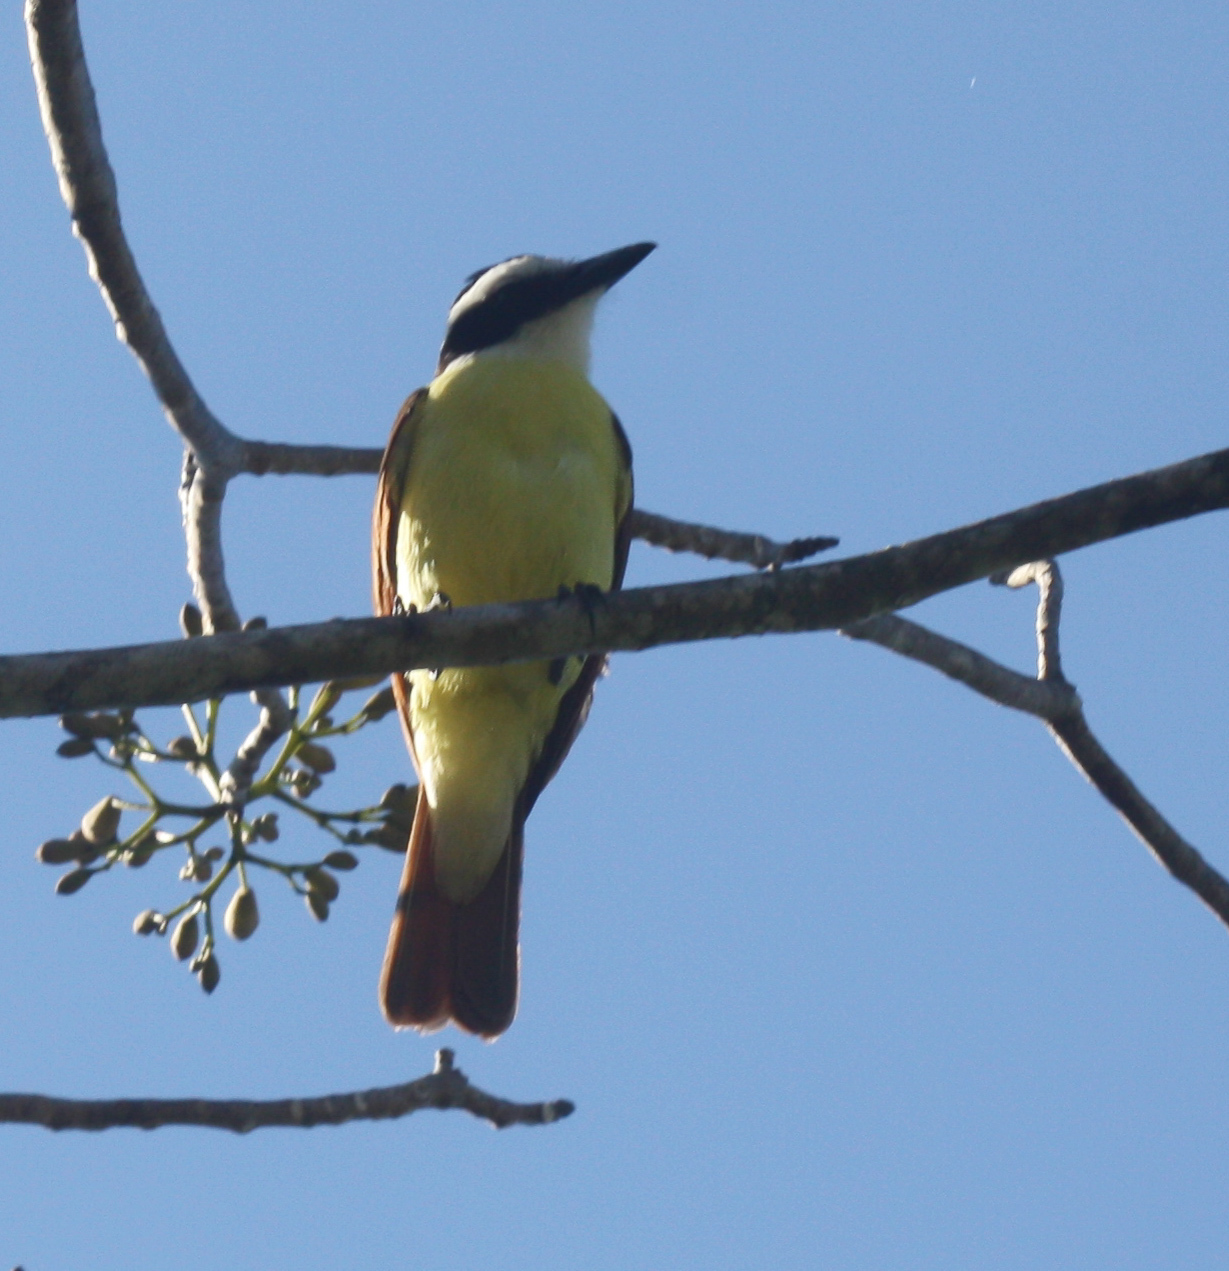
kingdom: Animalia
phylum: Chordata
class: Aves
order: Passeriformes
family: Tyrannidae
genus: Pitangus
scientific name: Pitangus sulphuratus
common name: Great kiskadee
